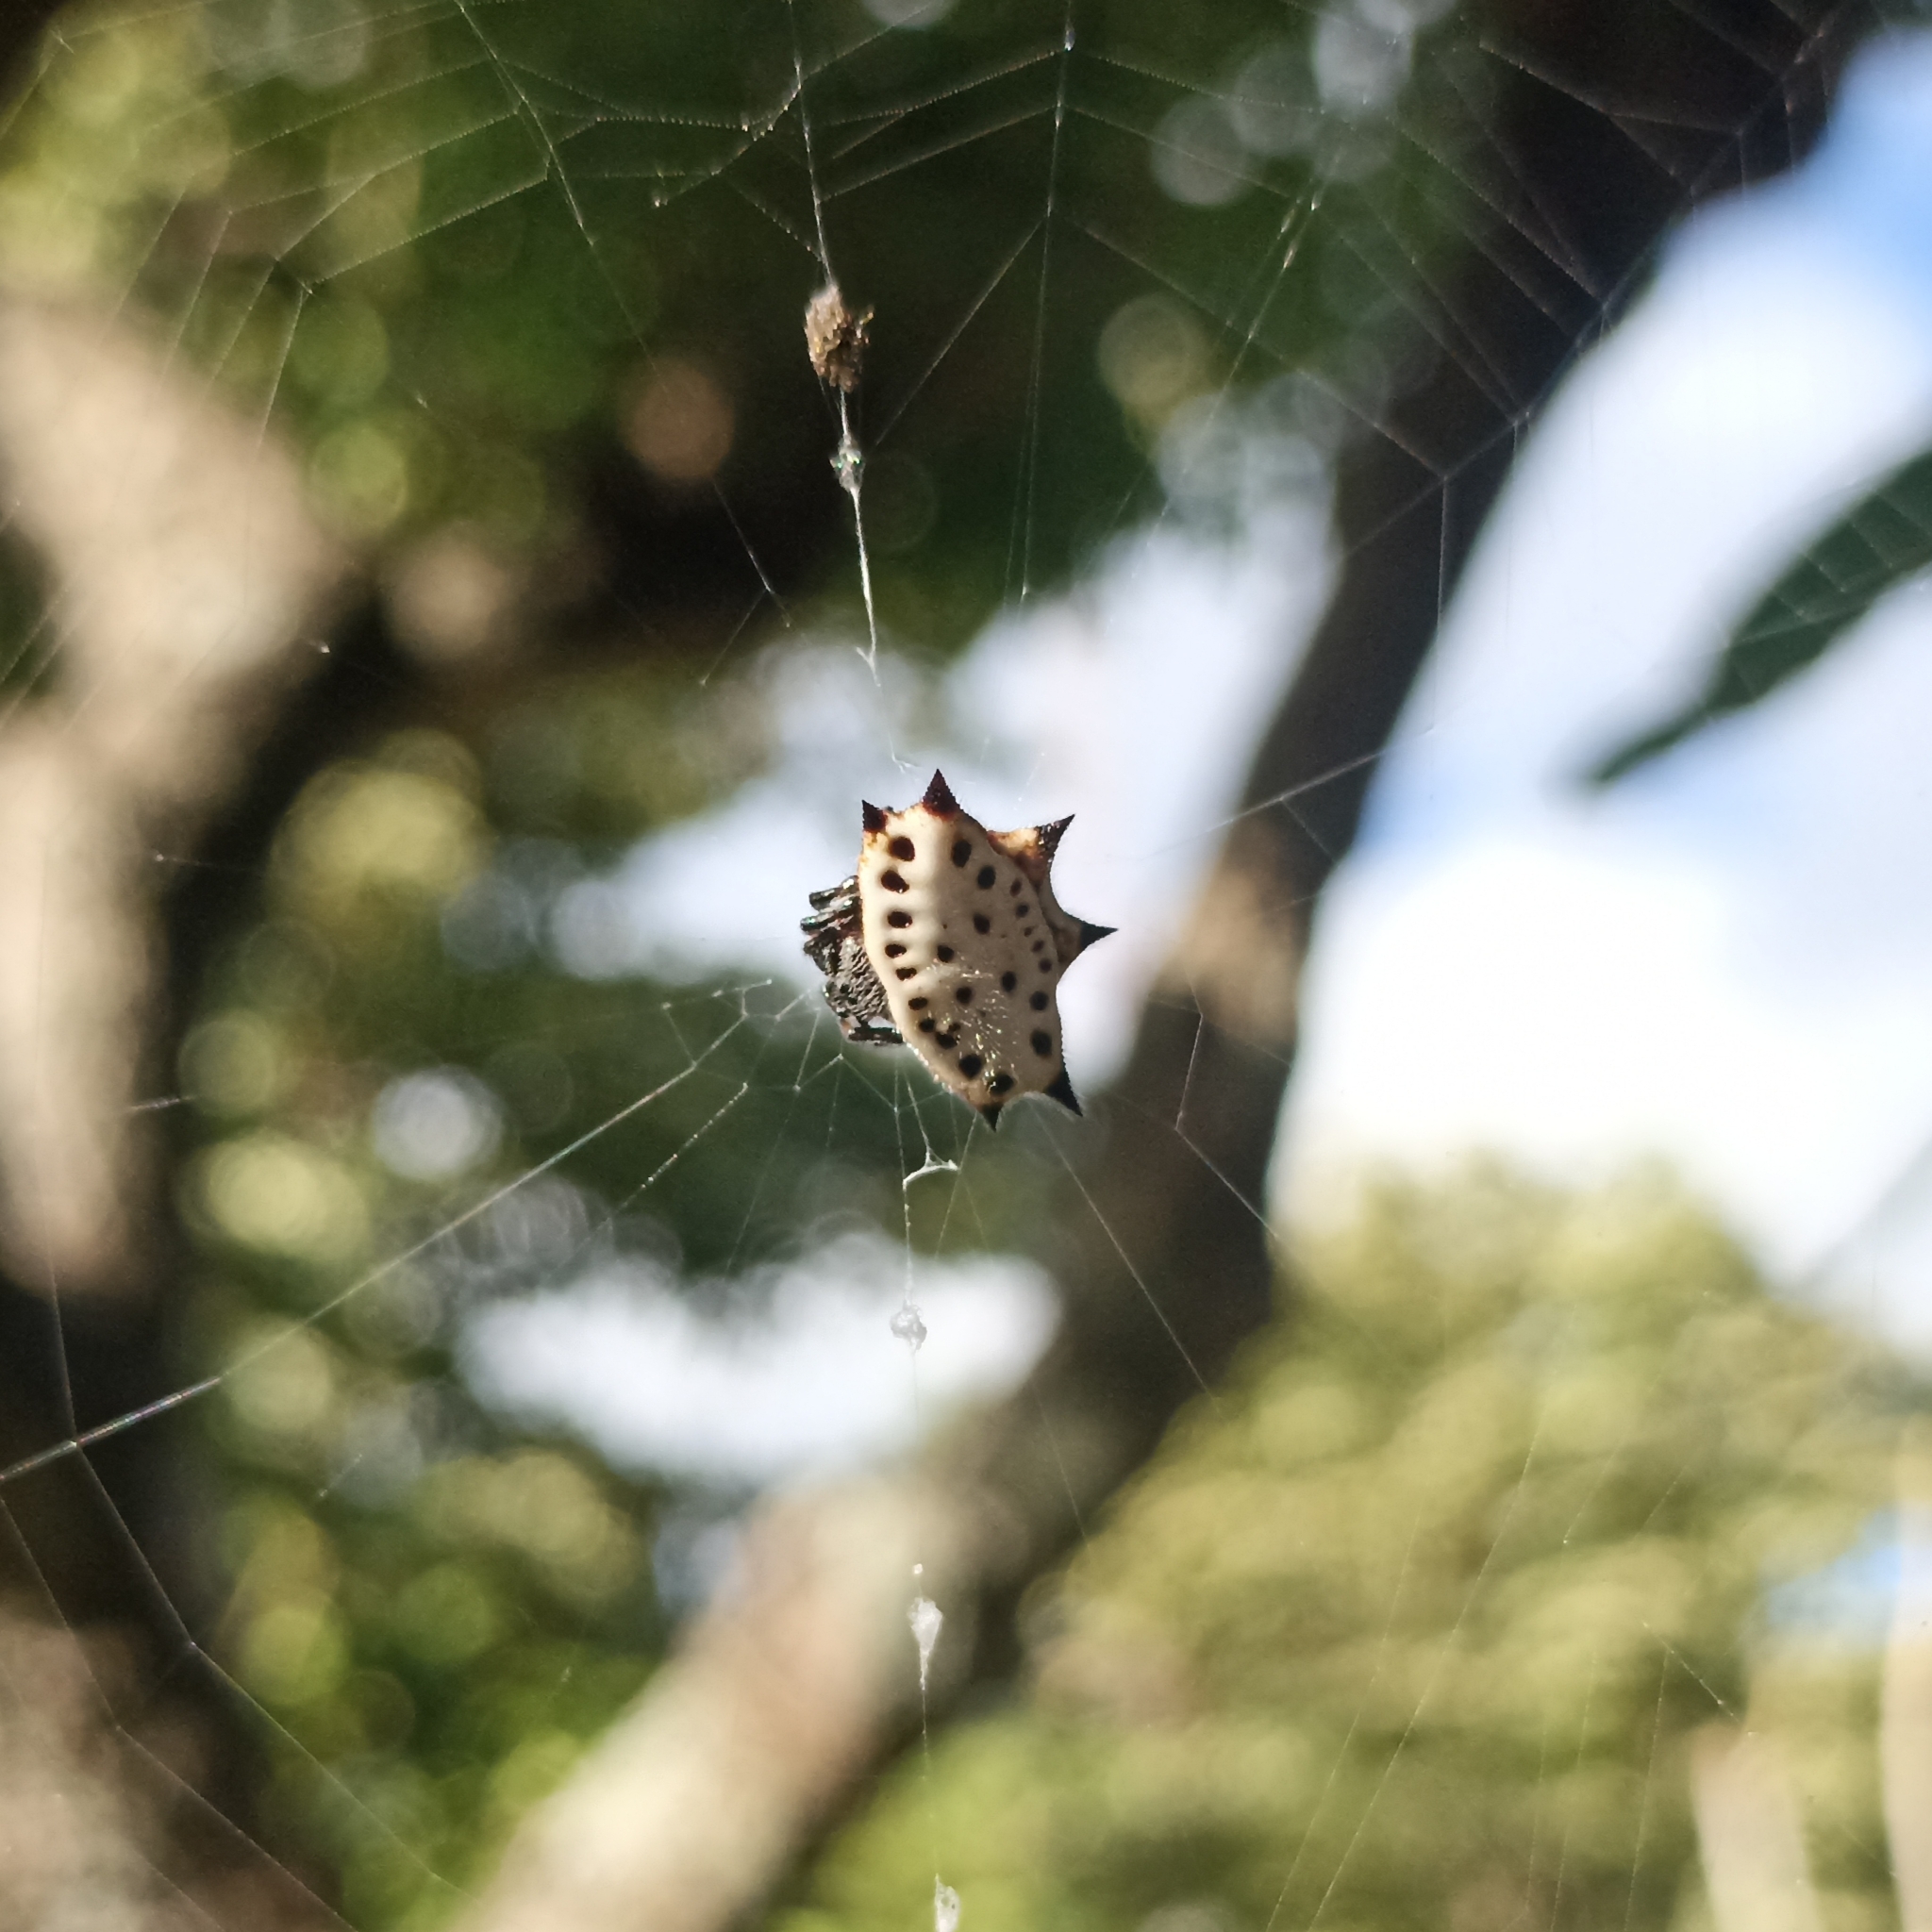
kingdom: Animalia
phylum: Arthropoda
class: Arachnida
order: Araneae
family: Araneidae
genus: Gasteracantha
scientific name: Gasteracantha cancriformis
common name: Orb weavers
